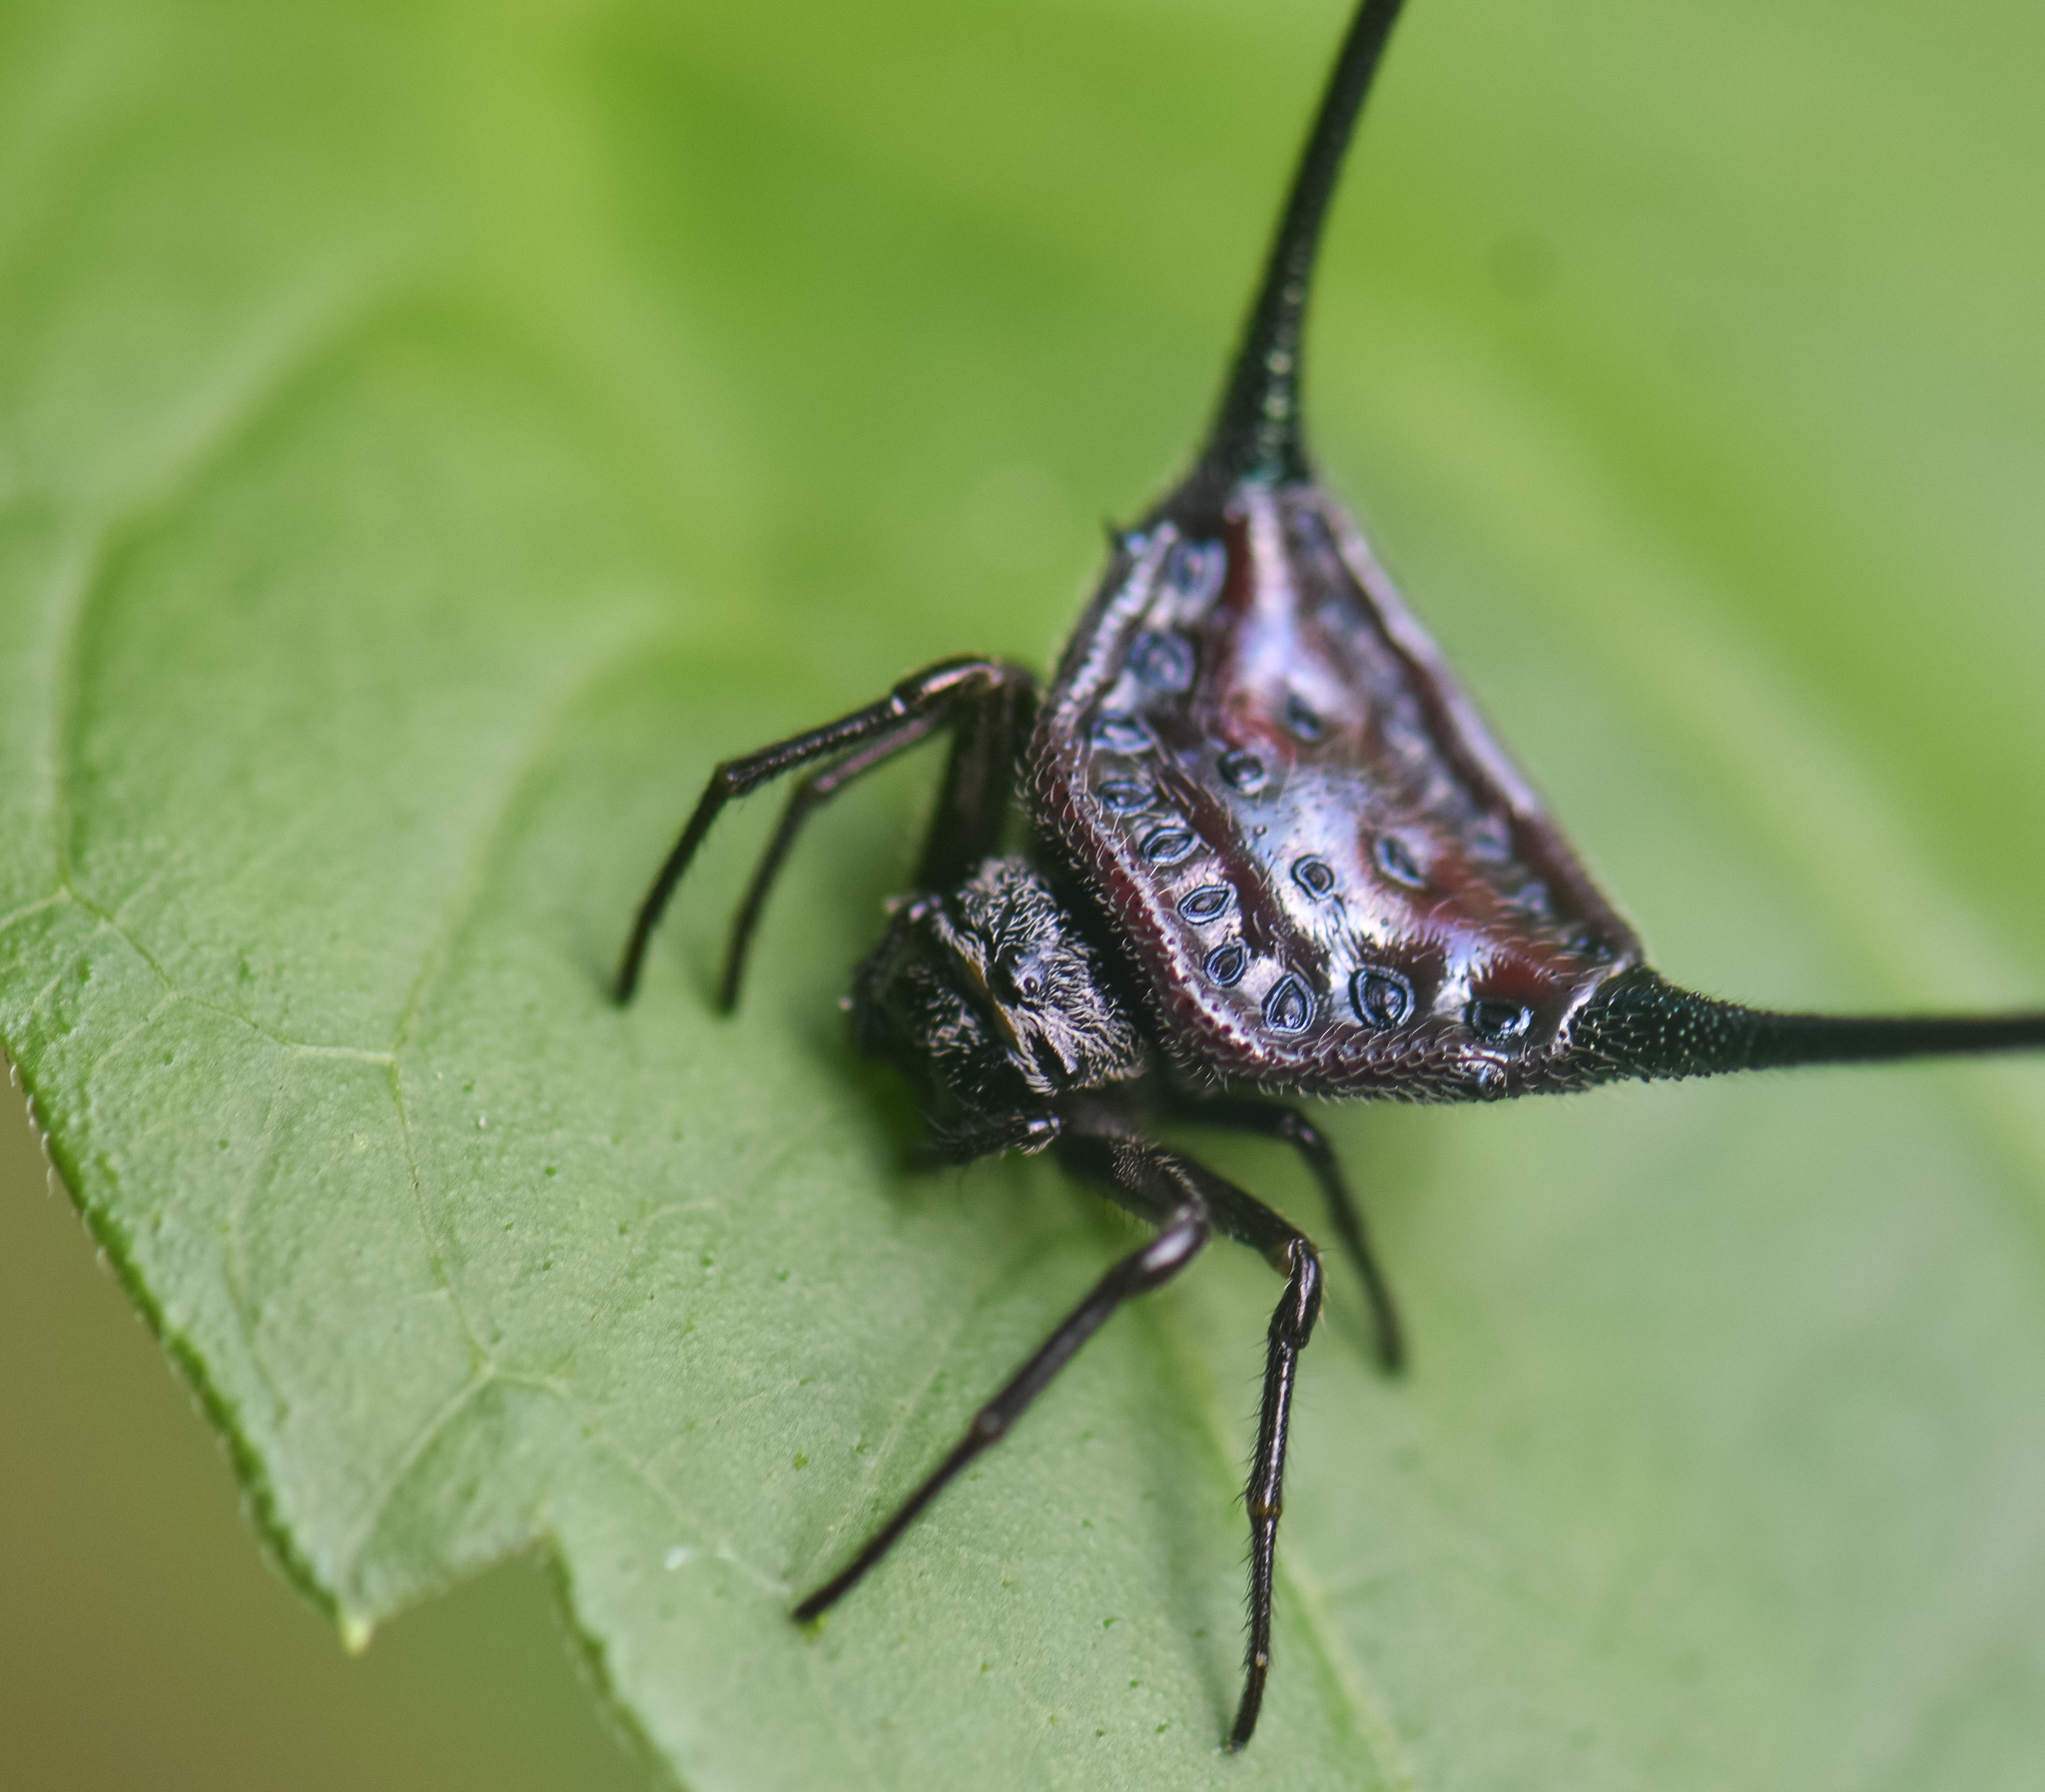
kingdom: Animalia
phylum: Arthropoda
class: Arachnida
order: Araneae
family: Araneidae
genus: Macracantha
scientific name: Macracantha arcuata
